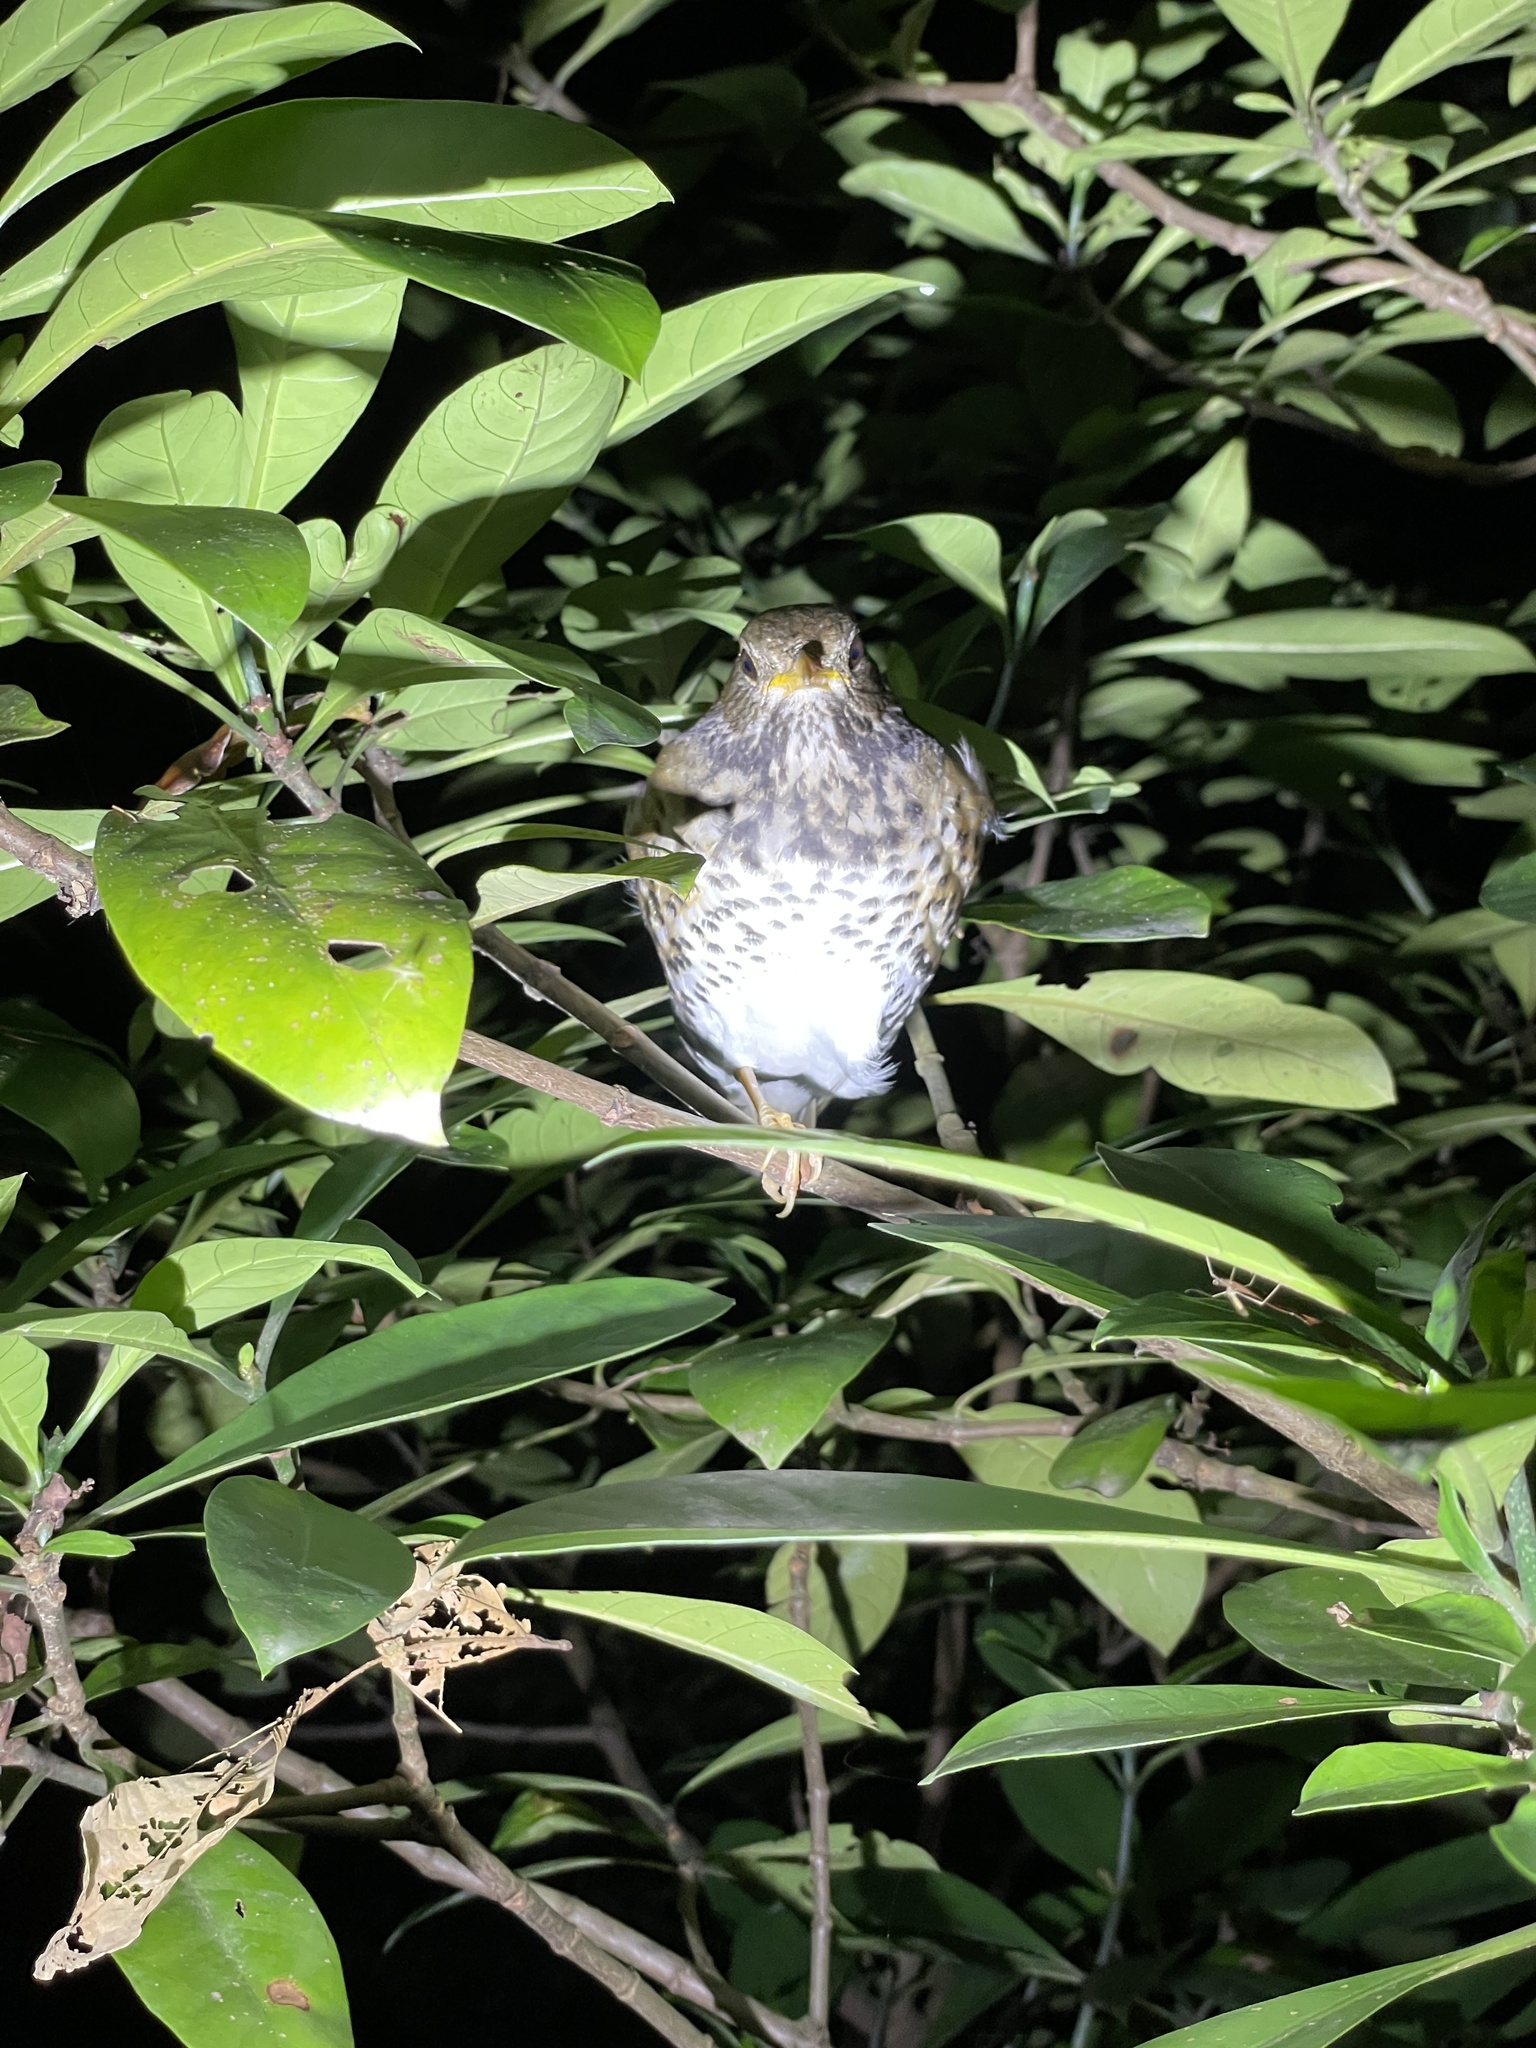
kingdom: Animalia
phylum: Chordata
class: Aves
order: Passeriformes
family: Turdidae
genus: Turdus
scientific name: Turdus cardis
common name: Japanese thrush
